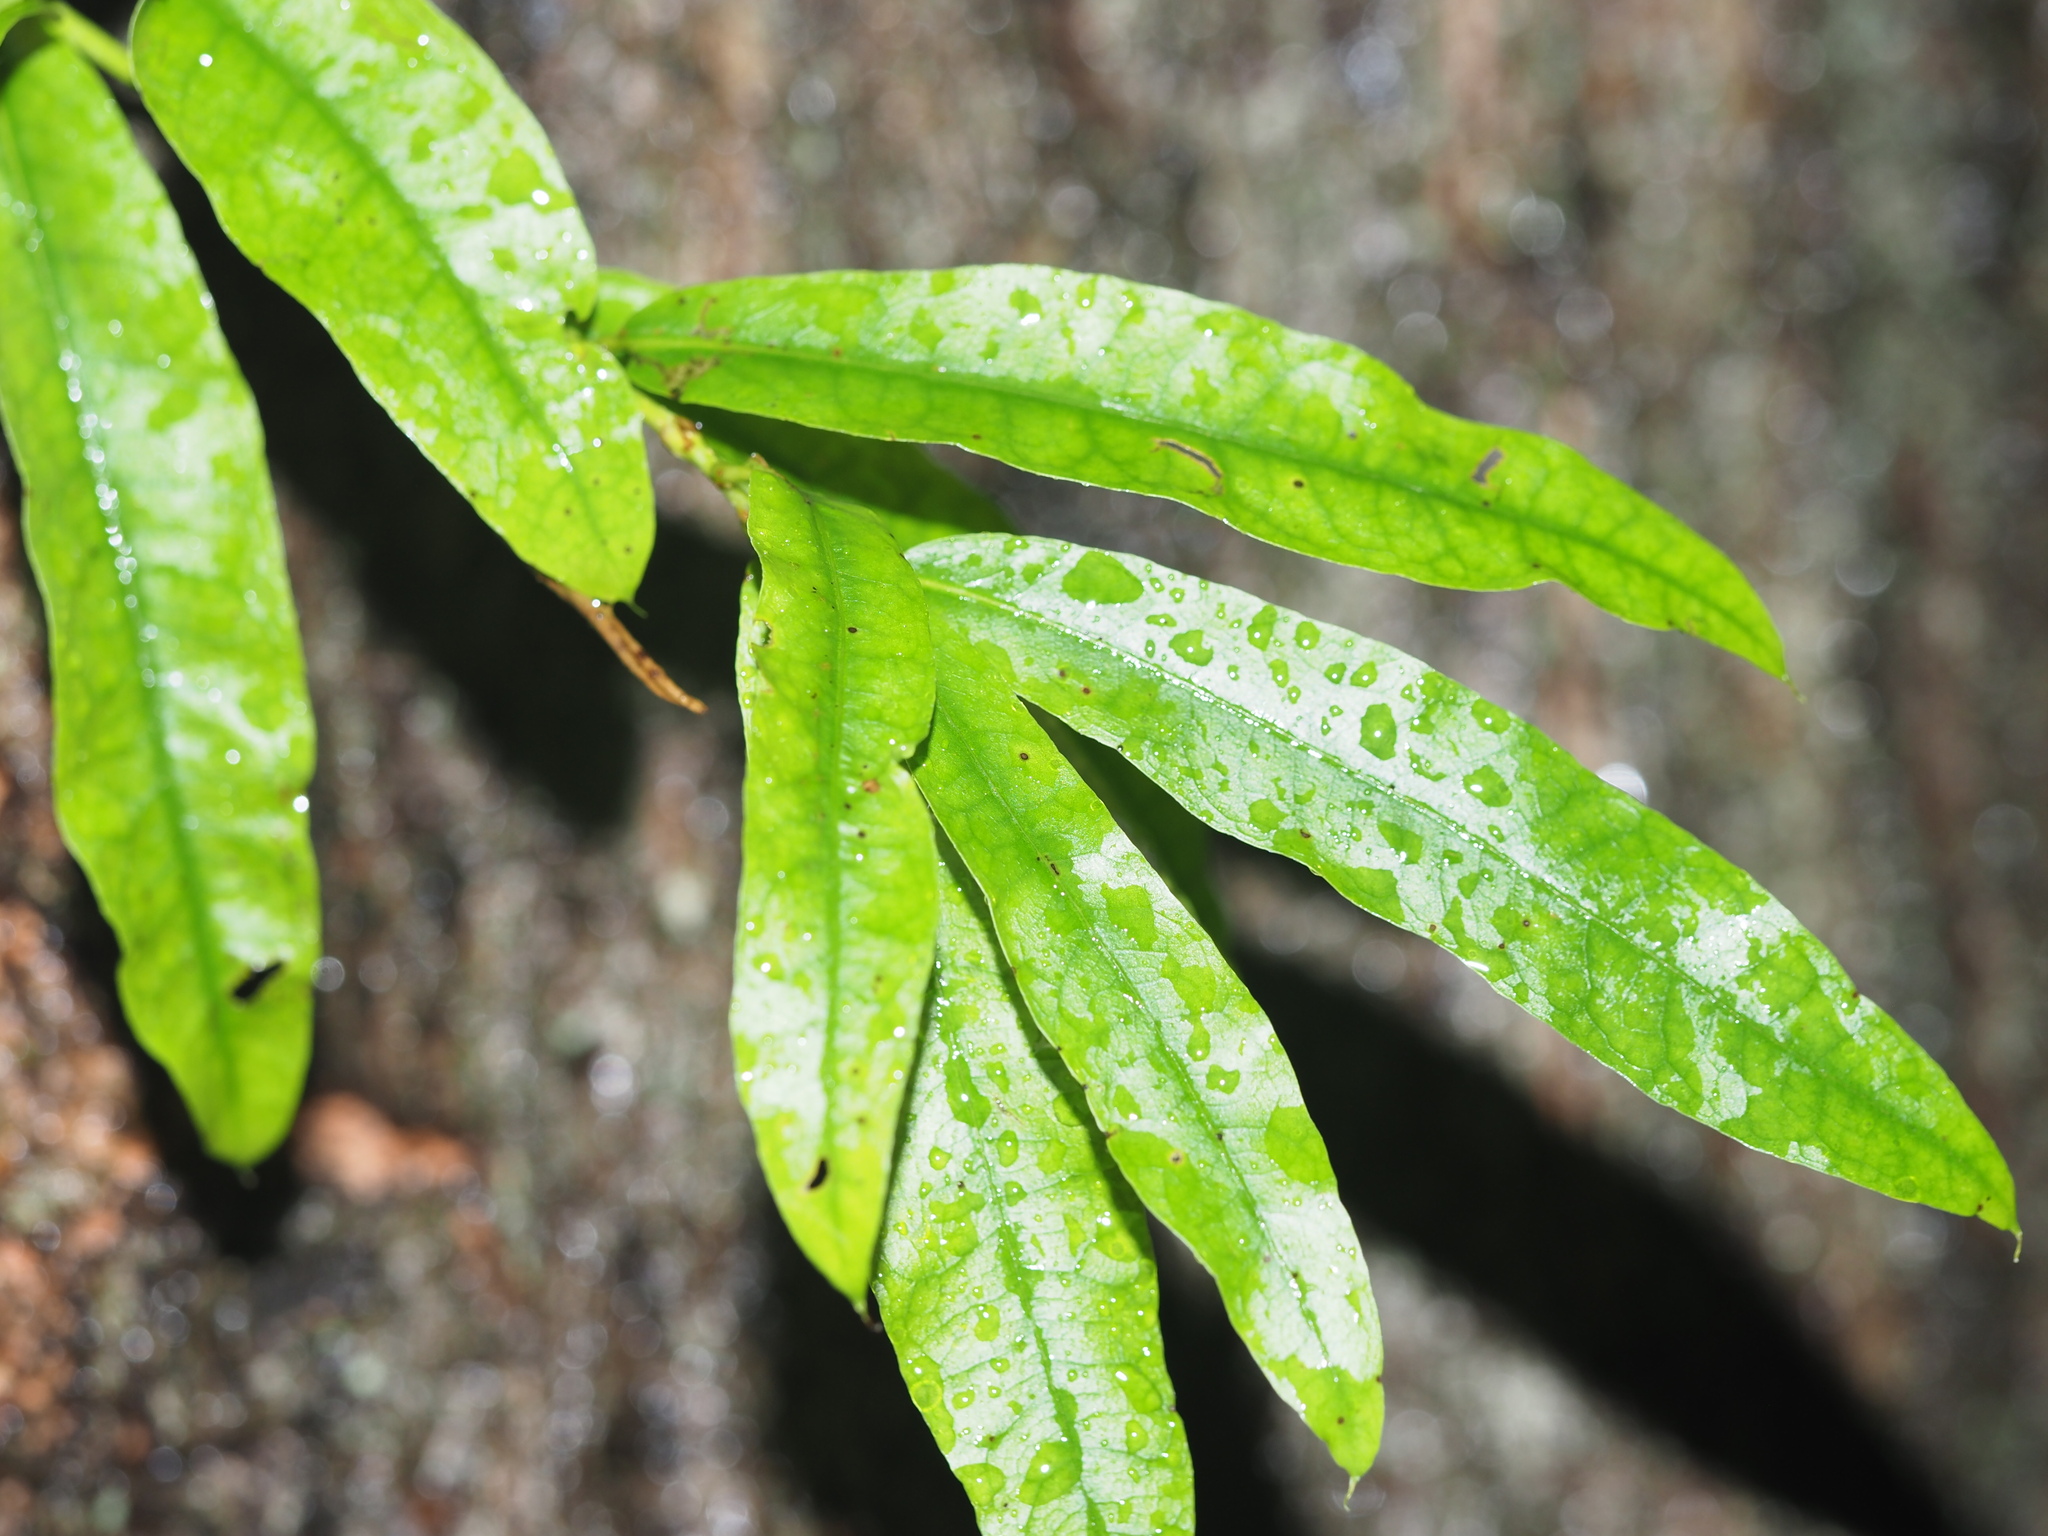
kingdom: Plantae
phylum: Tracheophyta
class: Magnoliopsida
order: Fagales
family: Fagaceae
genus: Quercus
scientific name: Quercus phellos
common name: Willow oak
